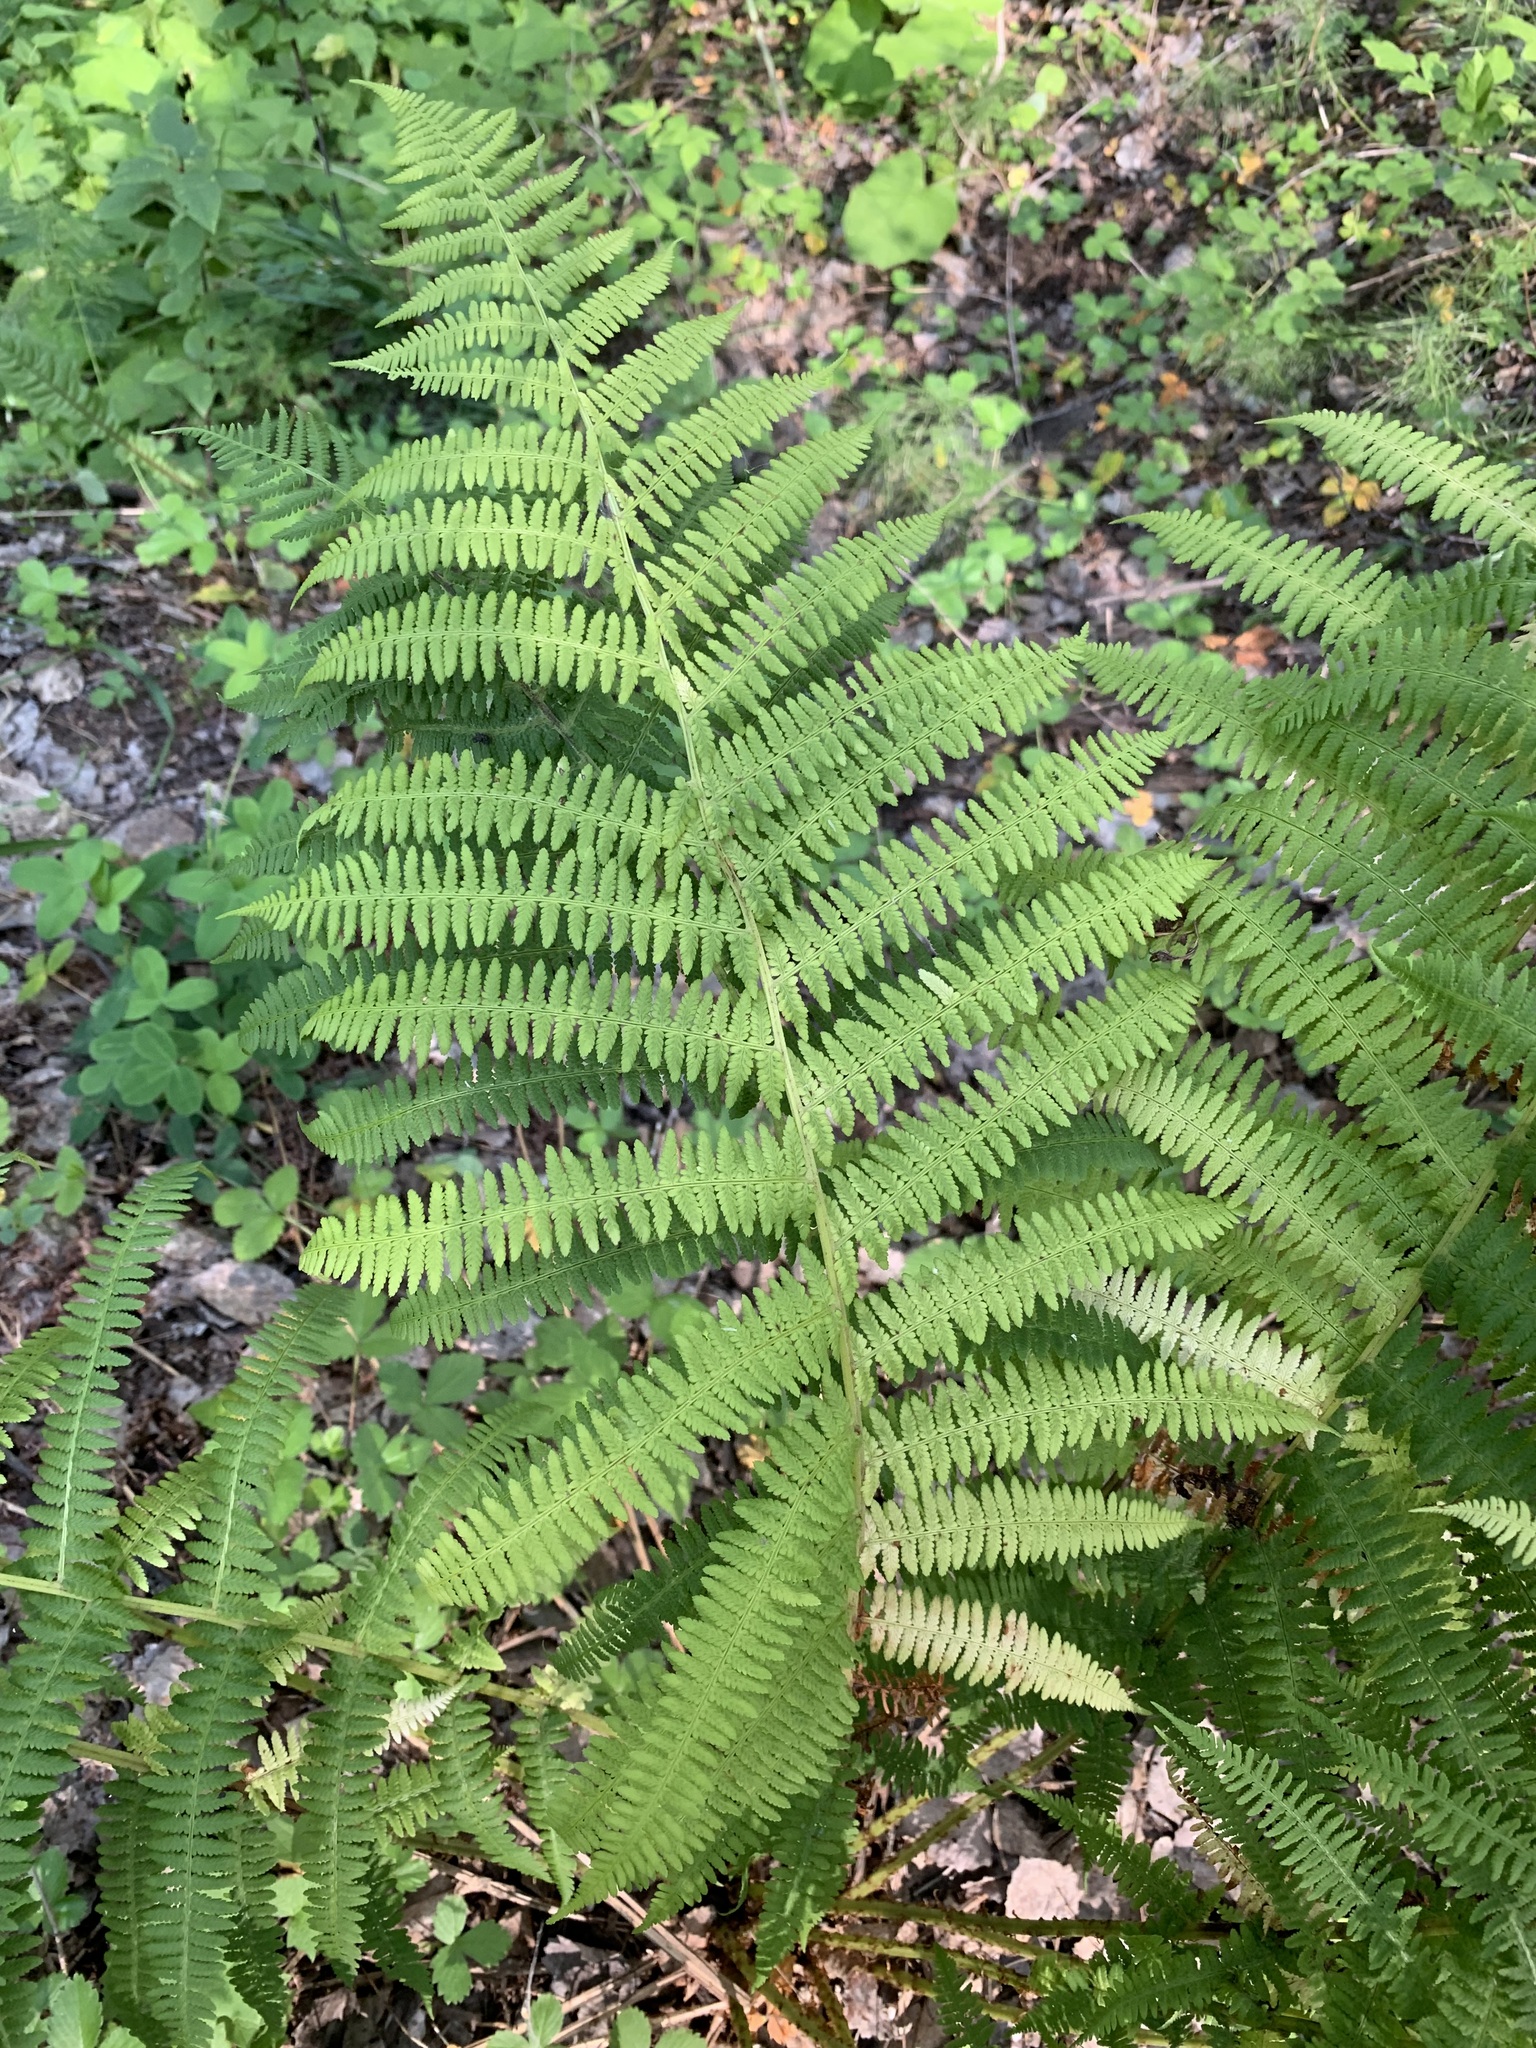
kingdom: Plantae
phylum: Tracheophyta
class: Polypodiopsida
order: Polypodiales
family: Athyriaceae
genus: Athyrium
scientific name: Athyrium filix-femina
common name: Lady fern
